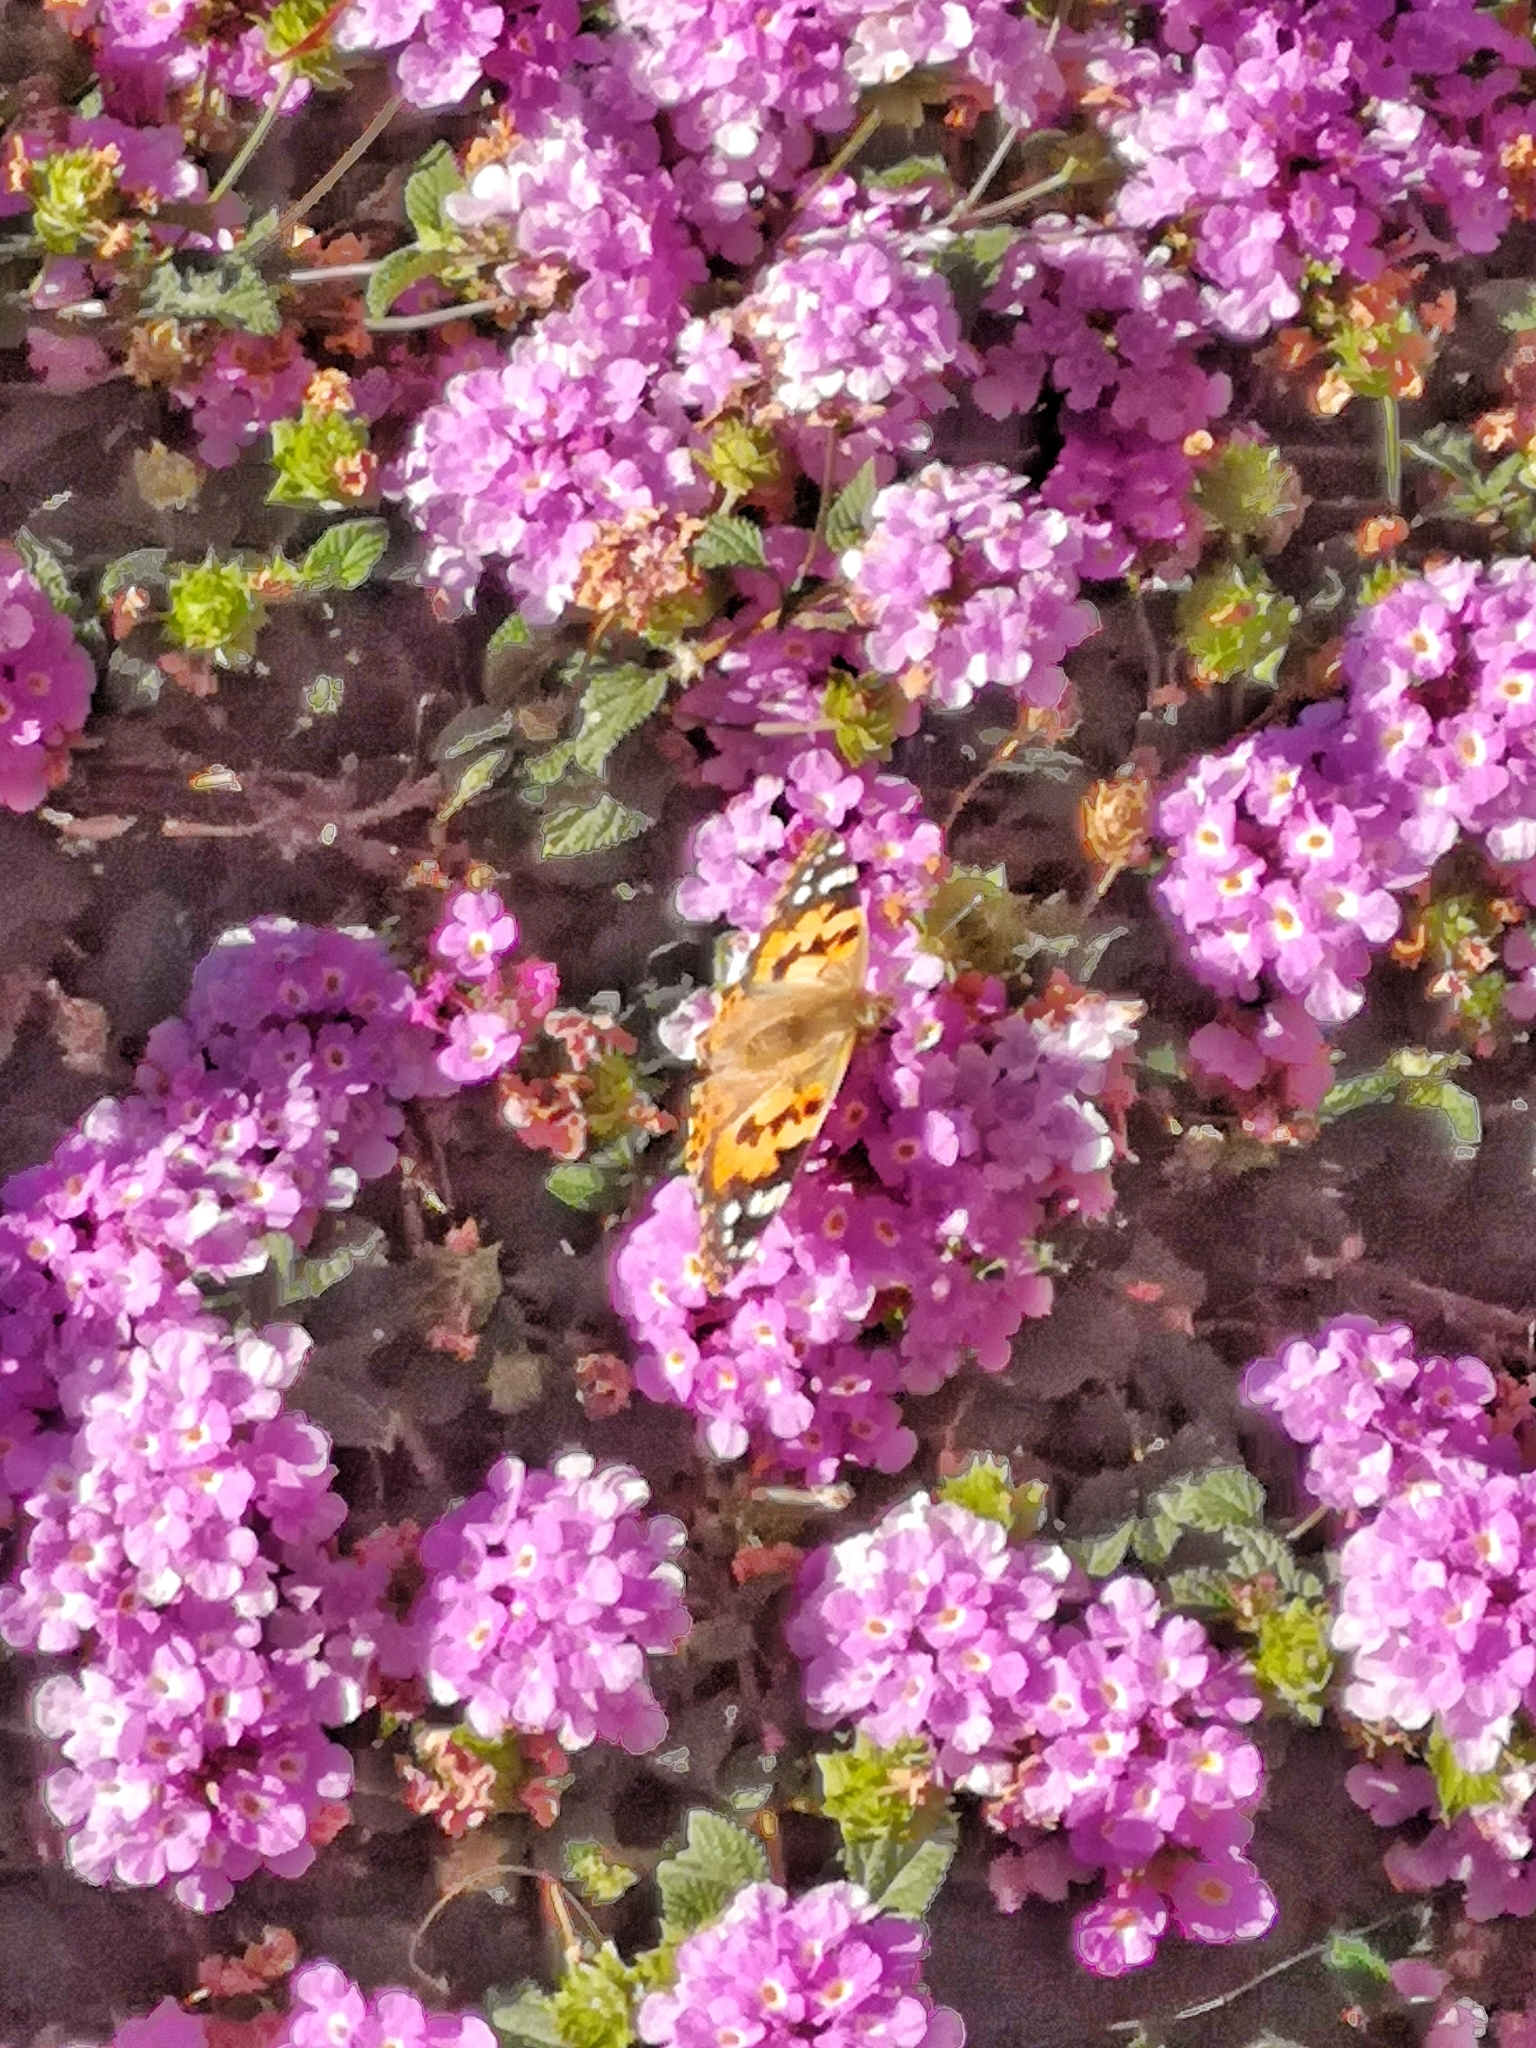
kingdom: Animalia
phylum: Arthropoda
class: Insecta
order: Lepidoptera
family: Nymphalidae
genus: Vanessa
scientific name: Vanessa cardui
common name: Painted lady
